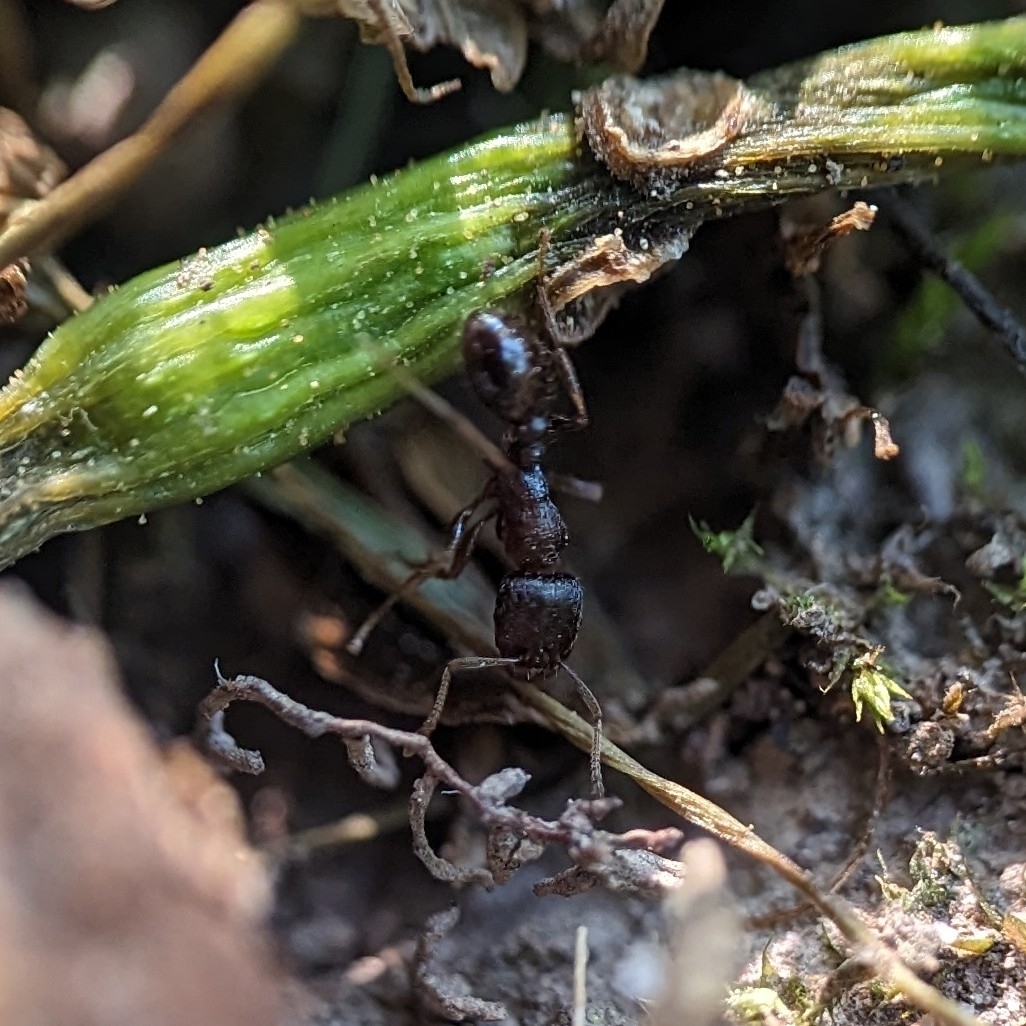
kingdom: Animalia
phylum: Arthropoda
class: Insecta
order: Hymenoptera
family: Formicidae
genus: Tetramorium
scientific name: Tetramorium immigrans
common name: Pavement ant
